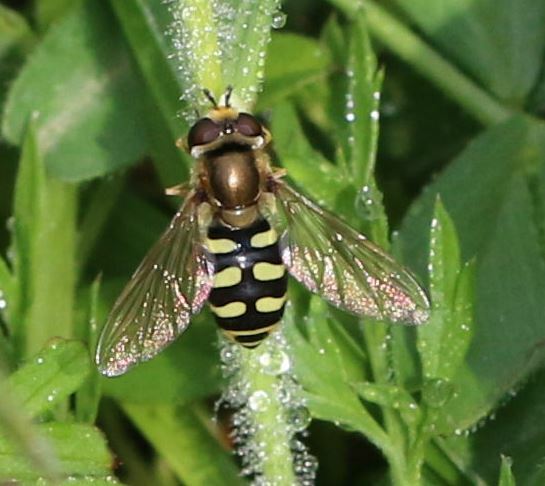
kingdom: Animalia
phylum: Arthropoda
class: Insecta
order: Diptera
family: Syrphidae
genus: Eupeodes
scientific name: Eupeodes corollae
